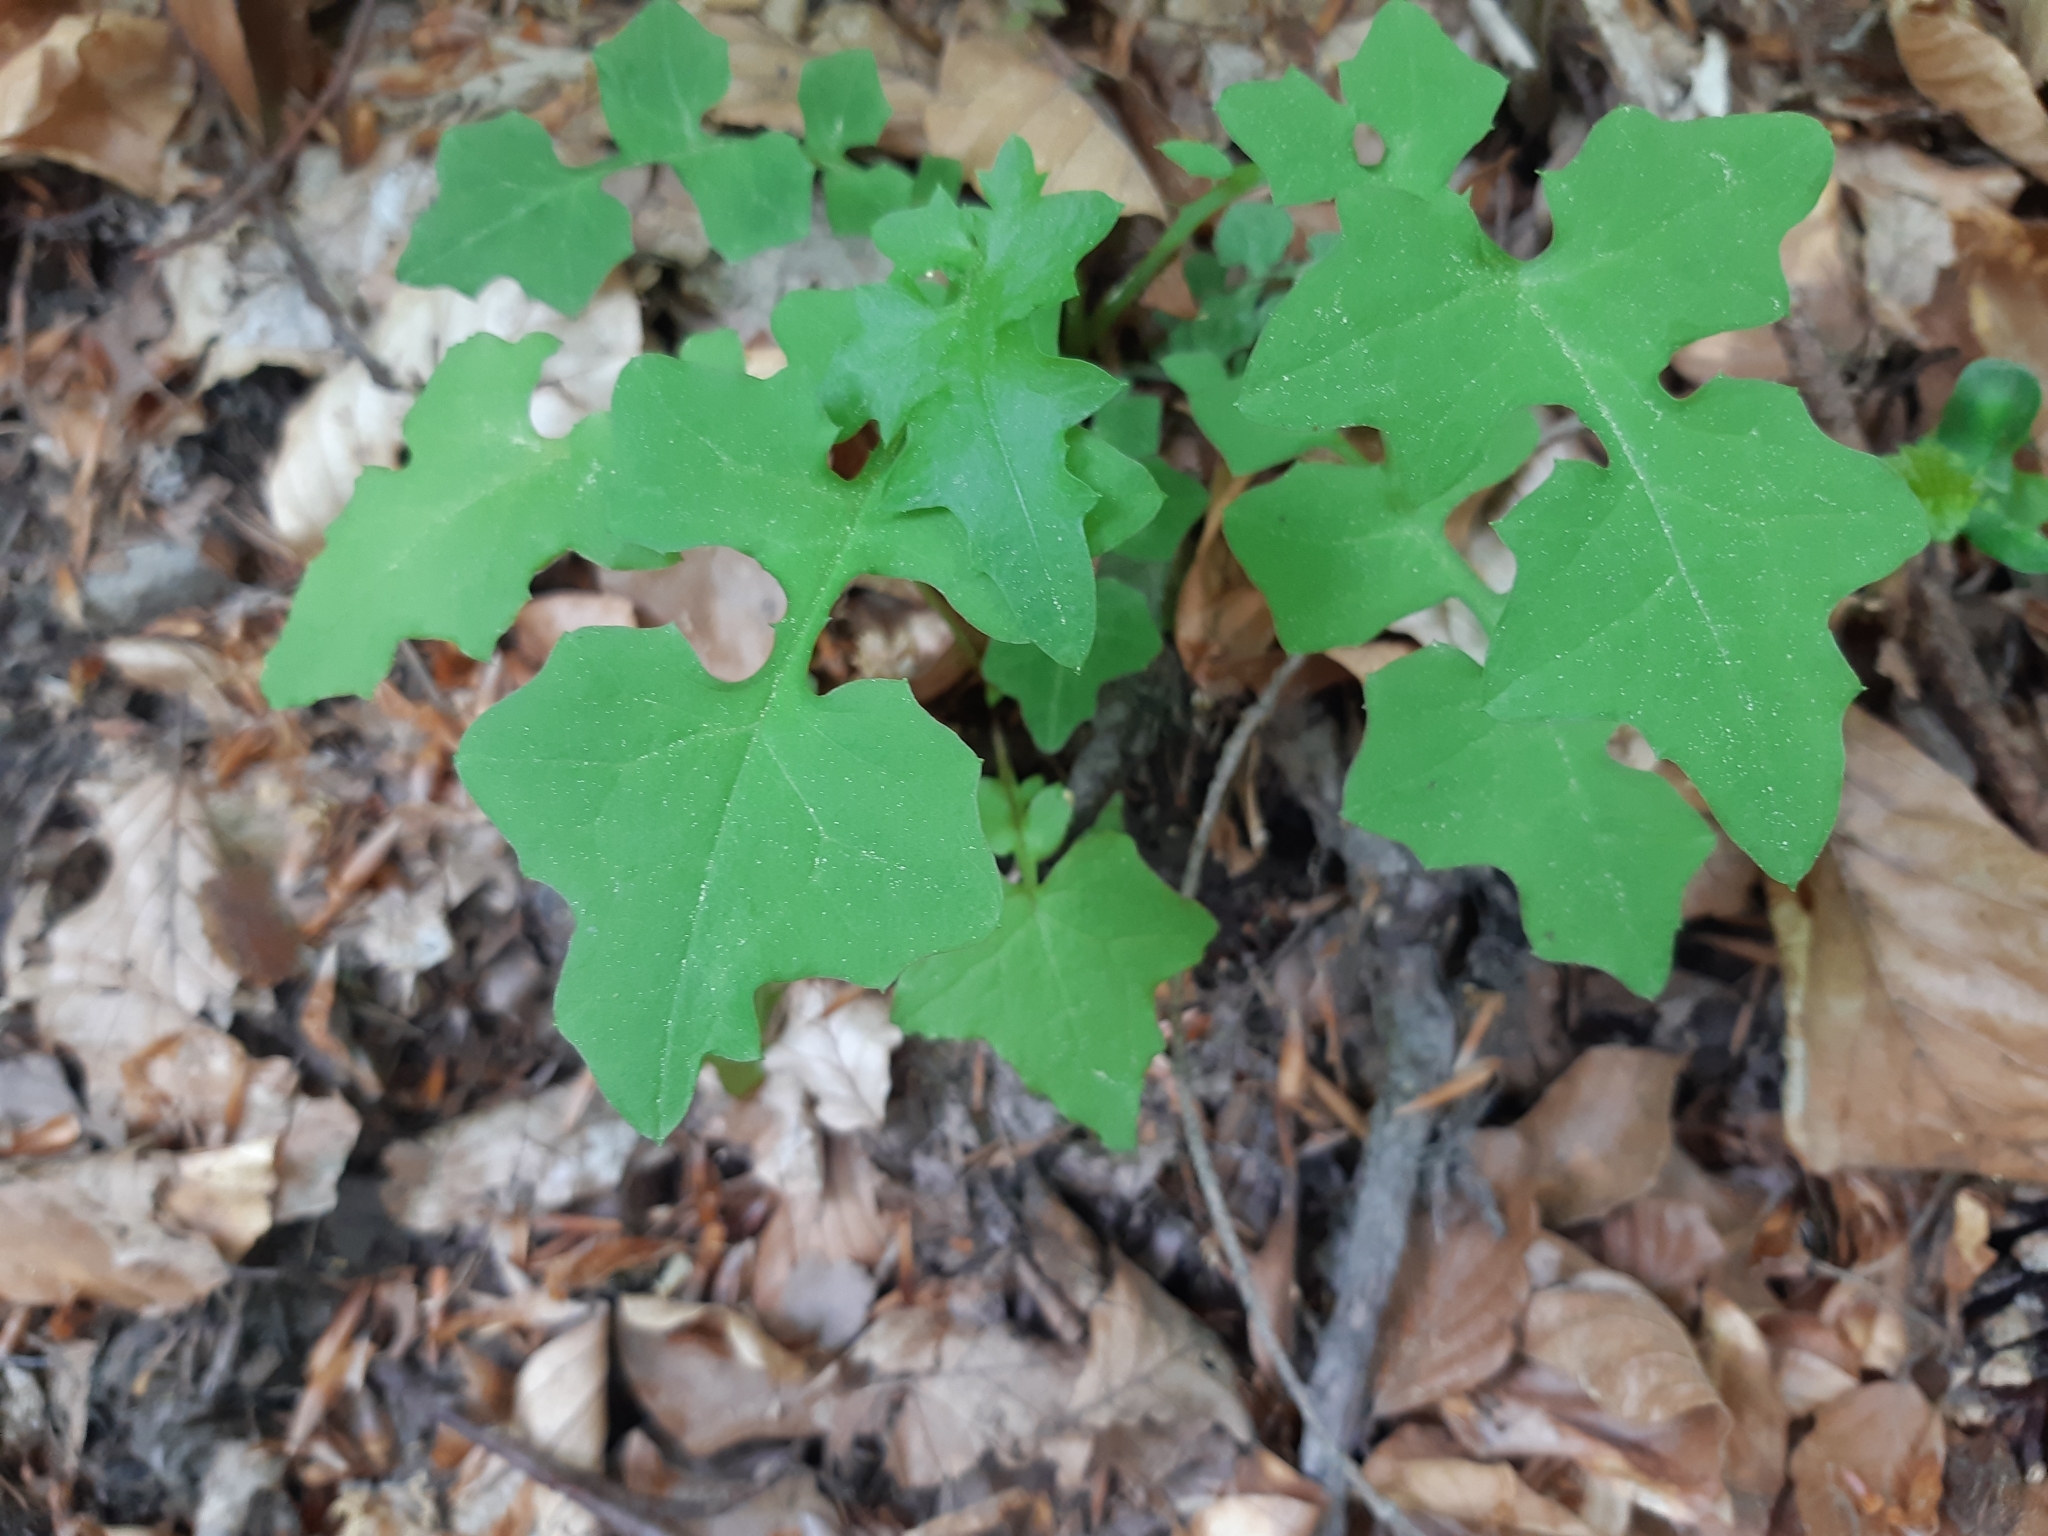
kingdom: Plantae
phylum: Tracheophyta
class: Magnoliopsida
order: Asterales
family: Asteraceae
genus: Mycelis
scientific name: Mycelis muralis
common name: Wall lettuce
